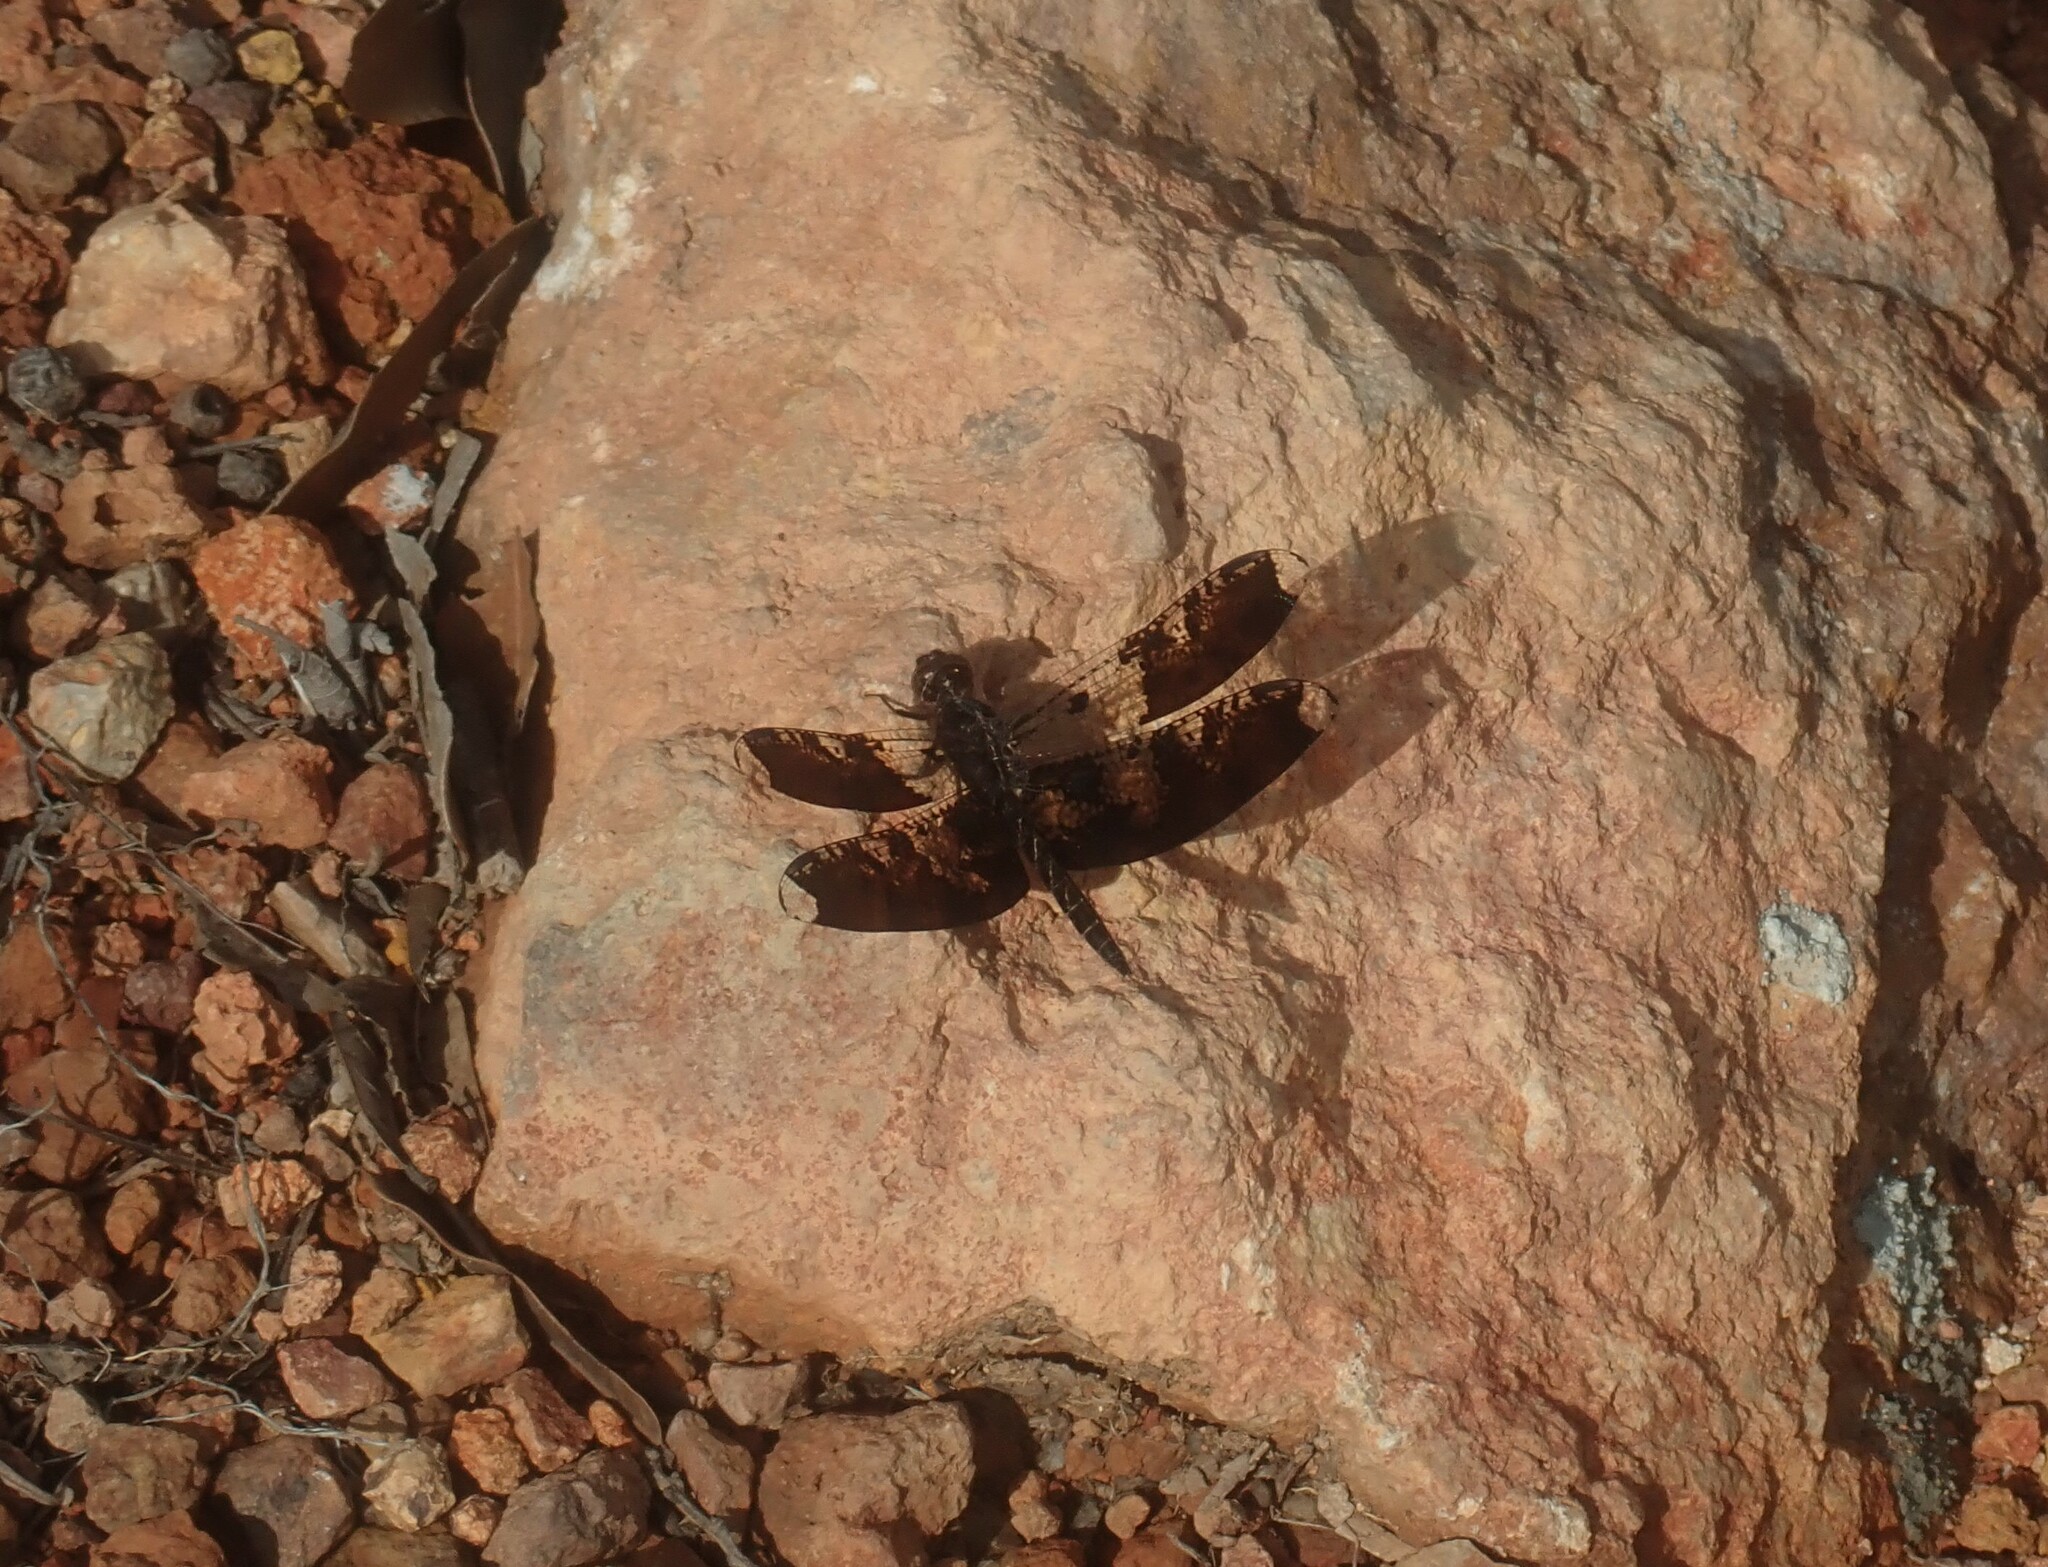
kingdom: Animalia
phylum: Arthropoda
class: Insecta
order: Odonata
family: Libellulidae
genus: Pseudoleon
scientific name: Pseudoleon superbus
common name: Filigree skimmer
